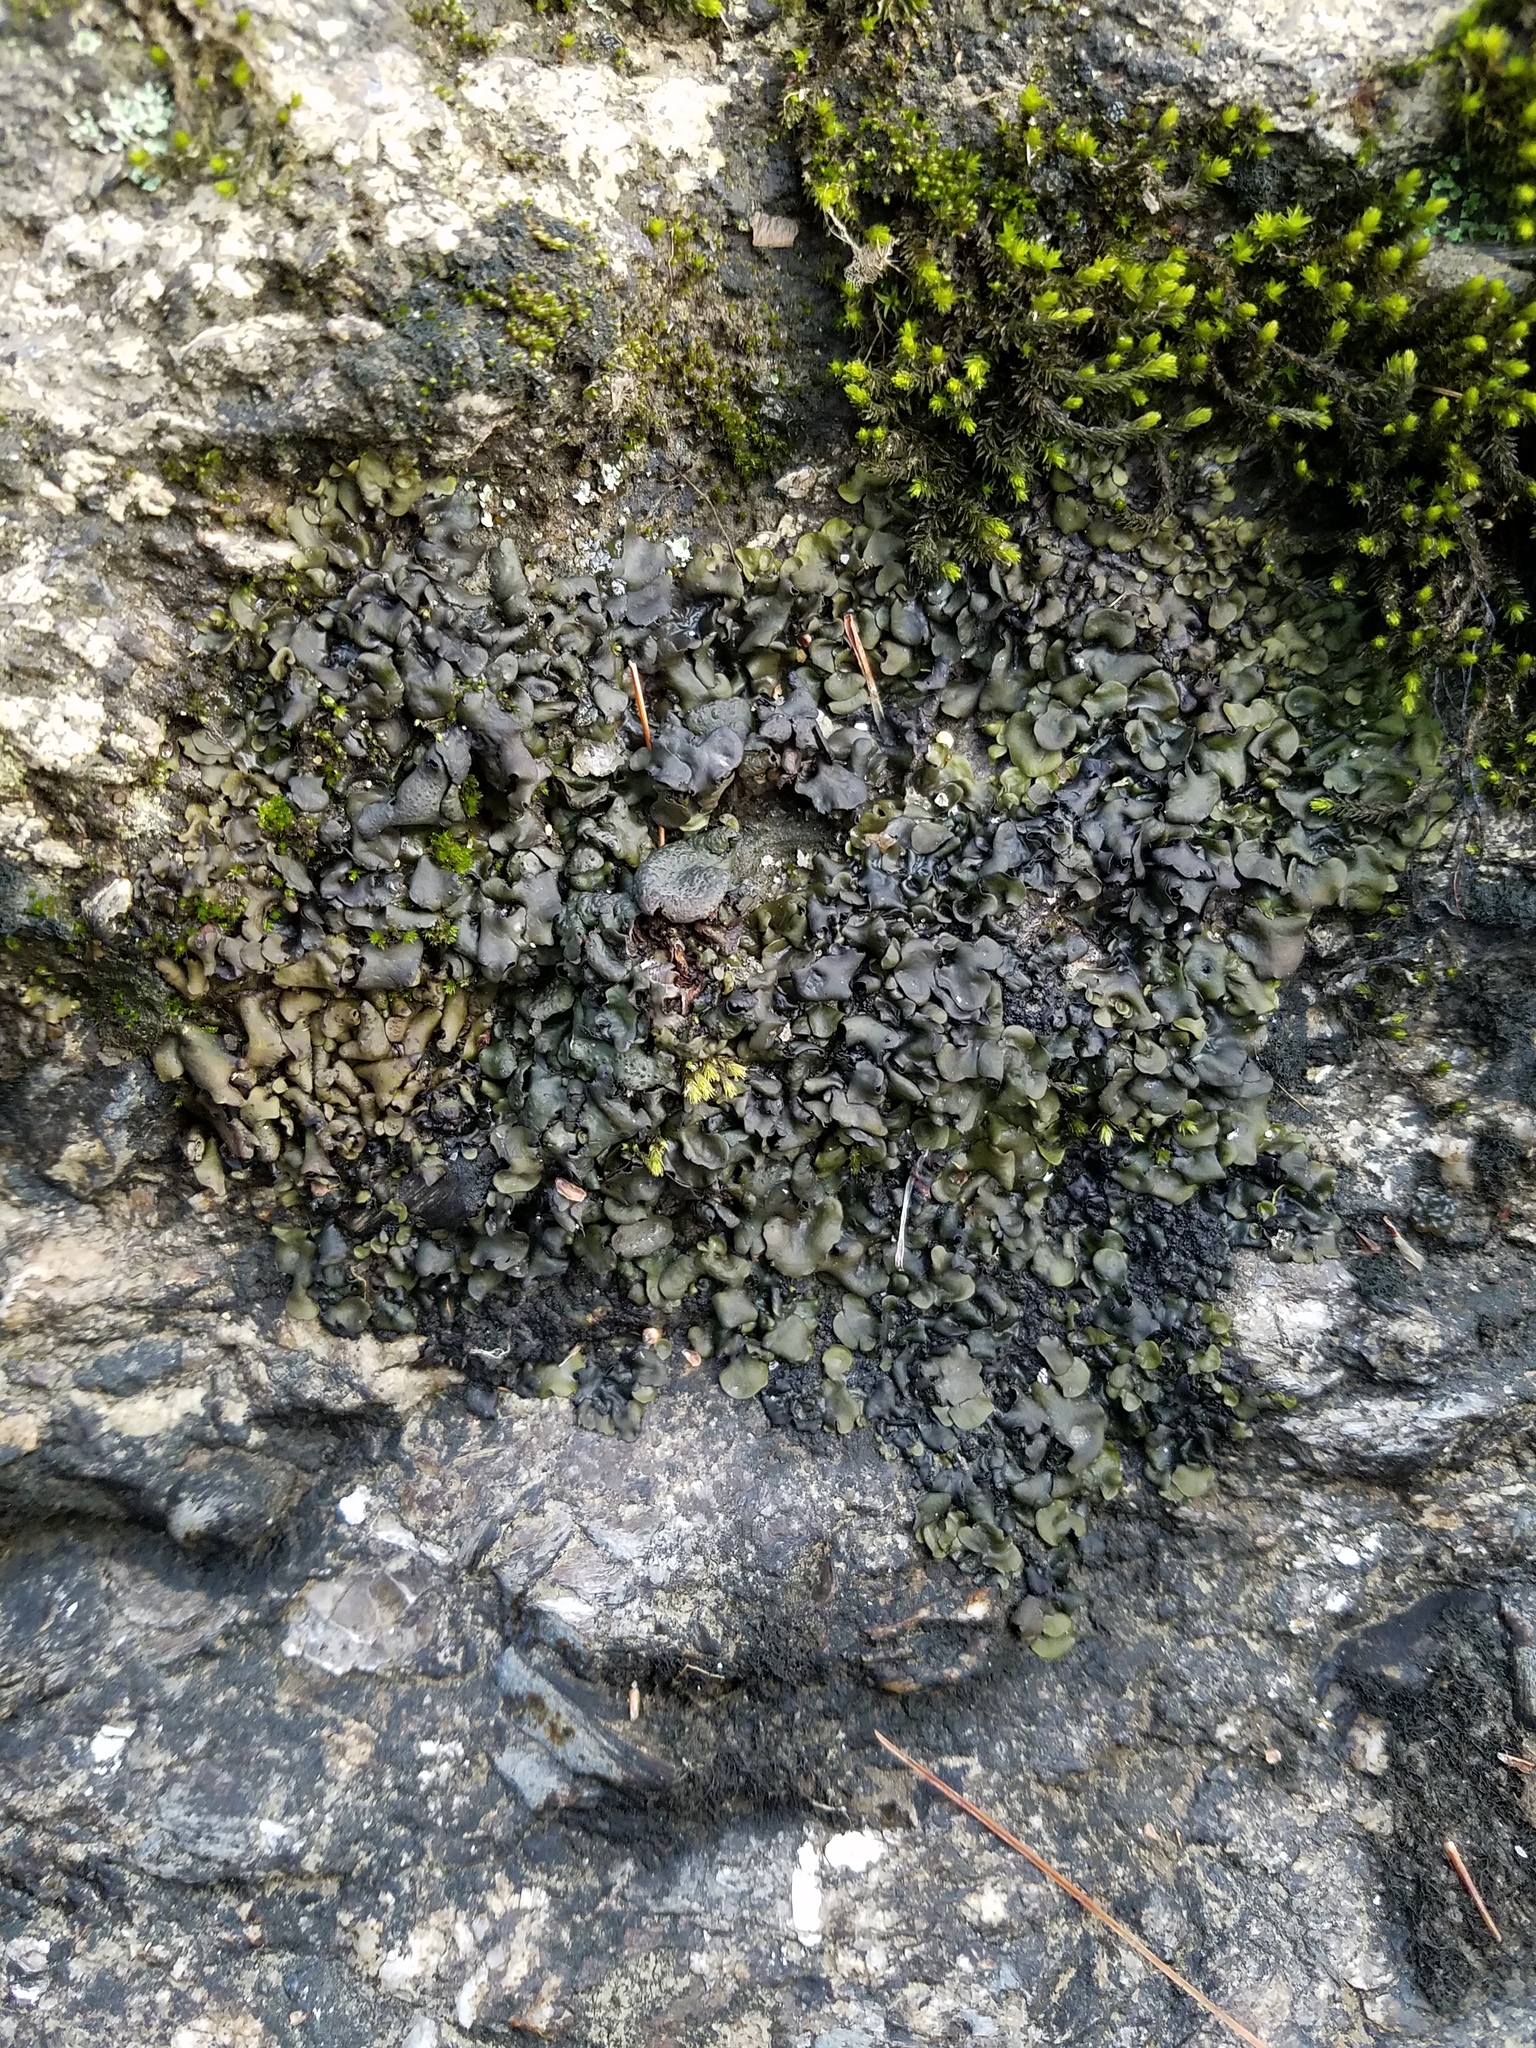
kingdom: Fungi
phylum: Ascomycota
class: Eurotiomycetes
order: Verrucariales
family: Verrucariaceae
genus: Dermatocarpon
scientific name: Dermatocarpon luridum
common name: Brook stippleback lichen
